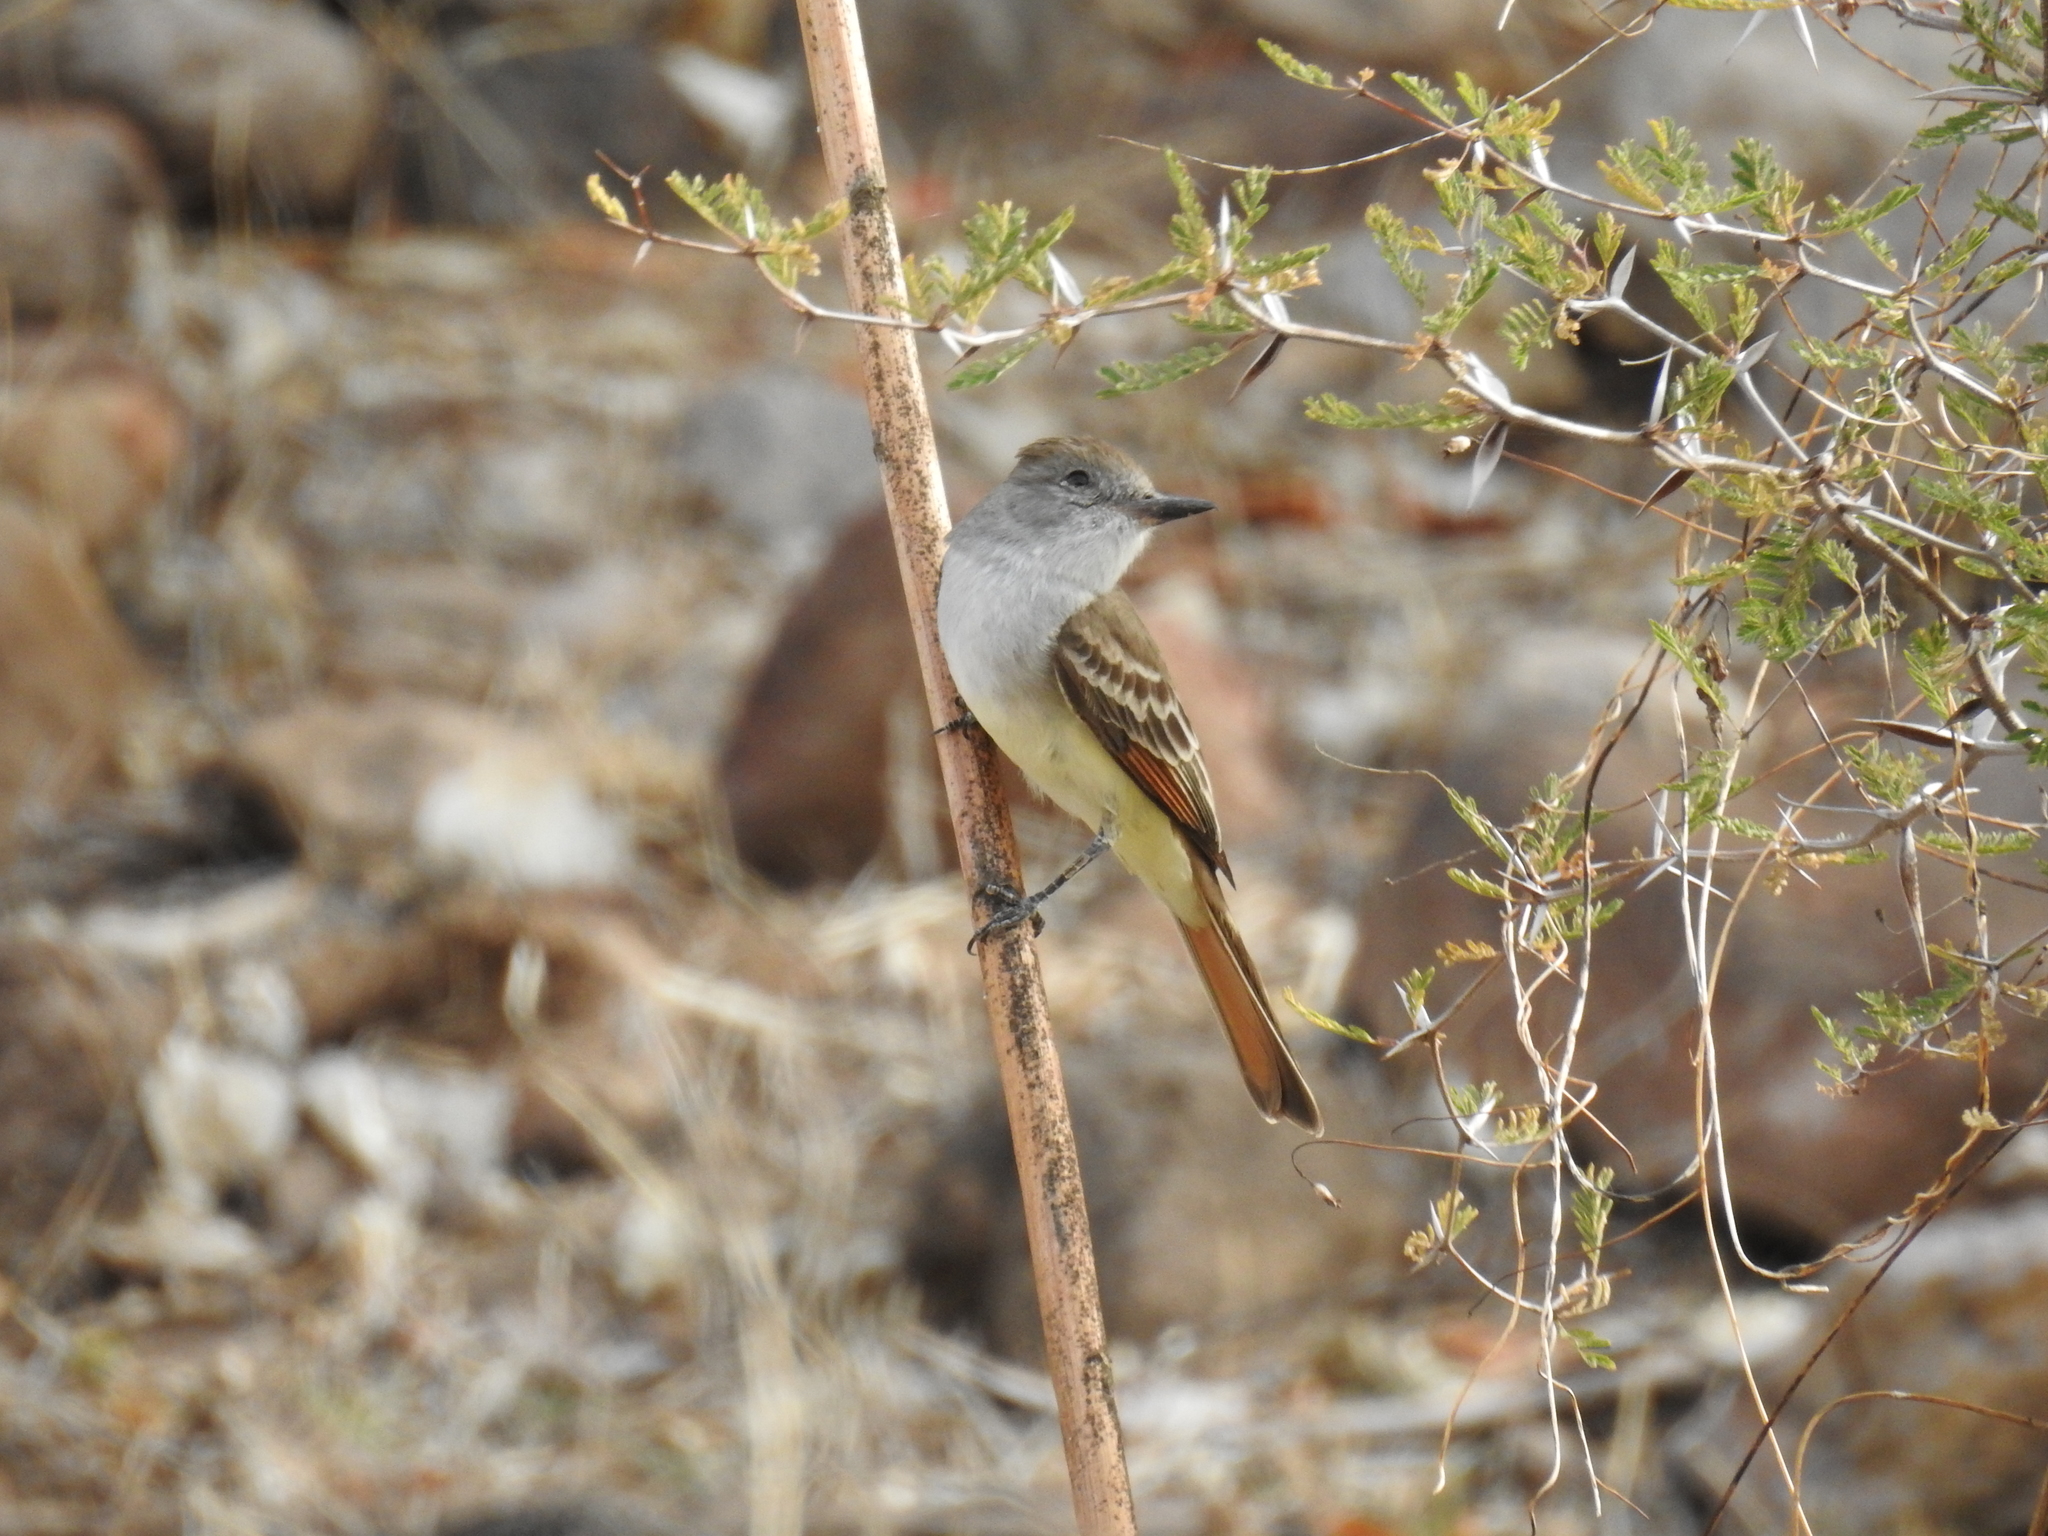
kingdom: Animalia
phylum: Chordata
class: Aves
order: Passeriformes
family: Tyrannidae
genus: Myiarchus
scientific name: Myiarchus cinerascens
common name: Ash-throated flycatcher
